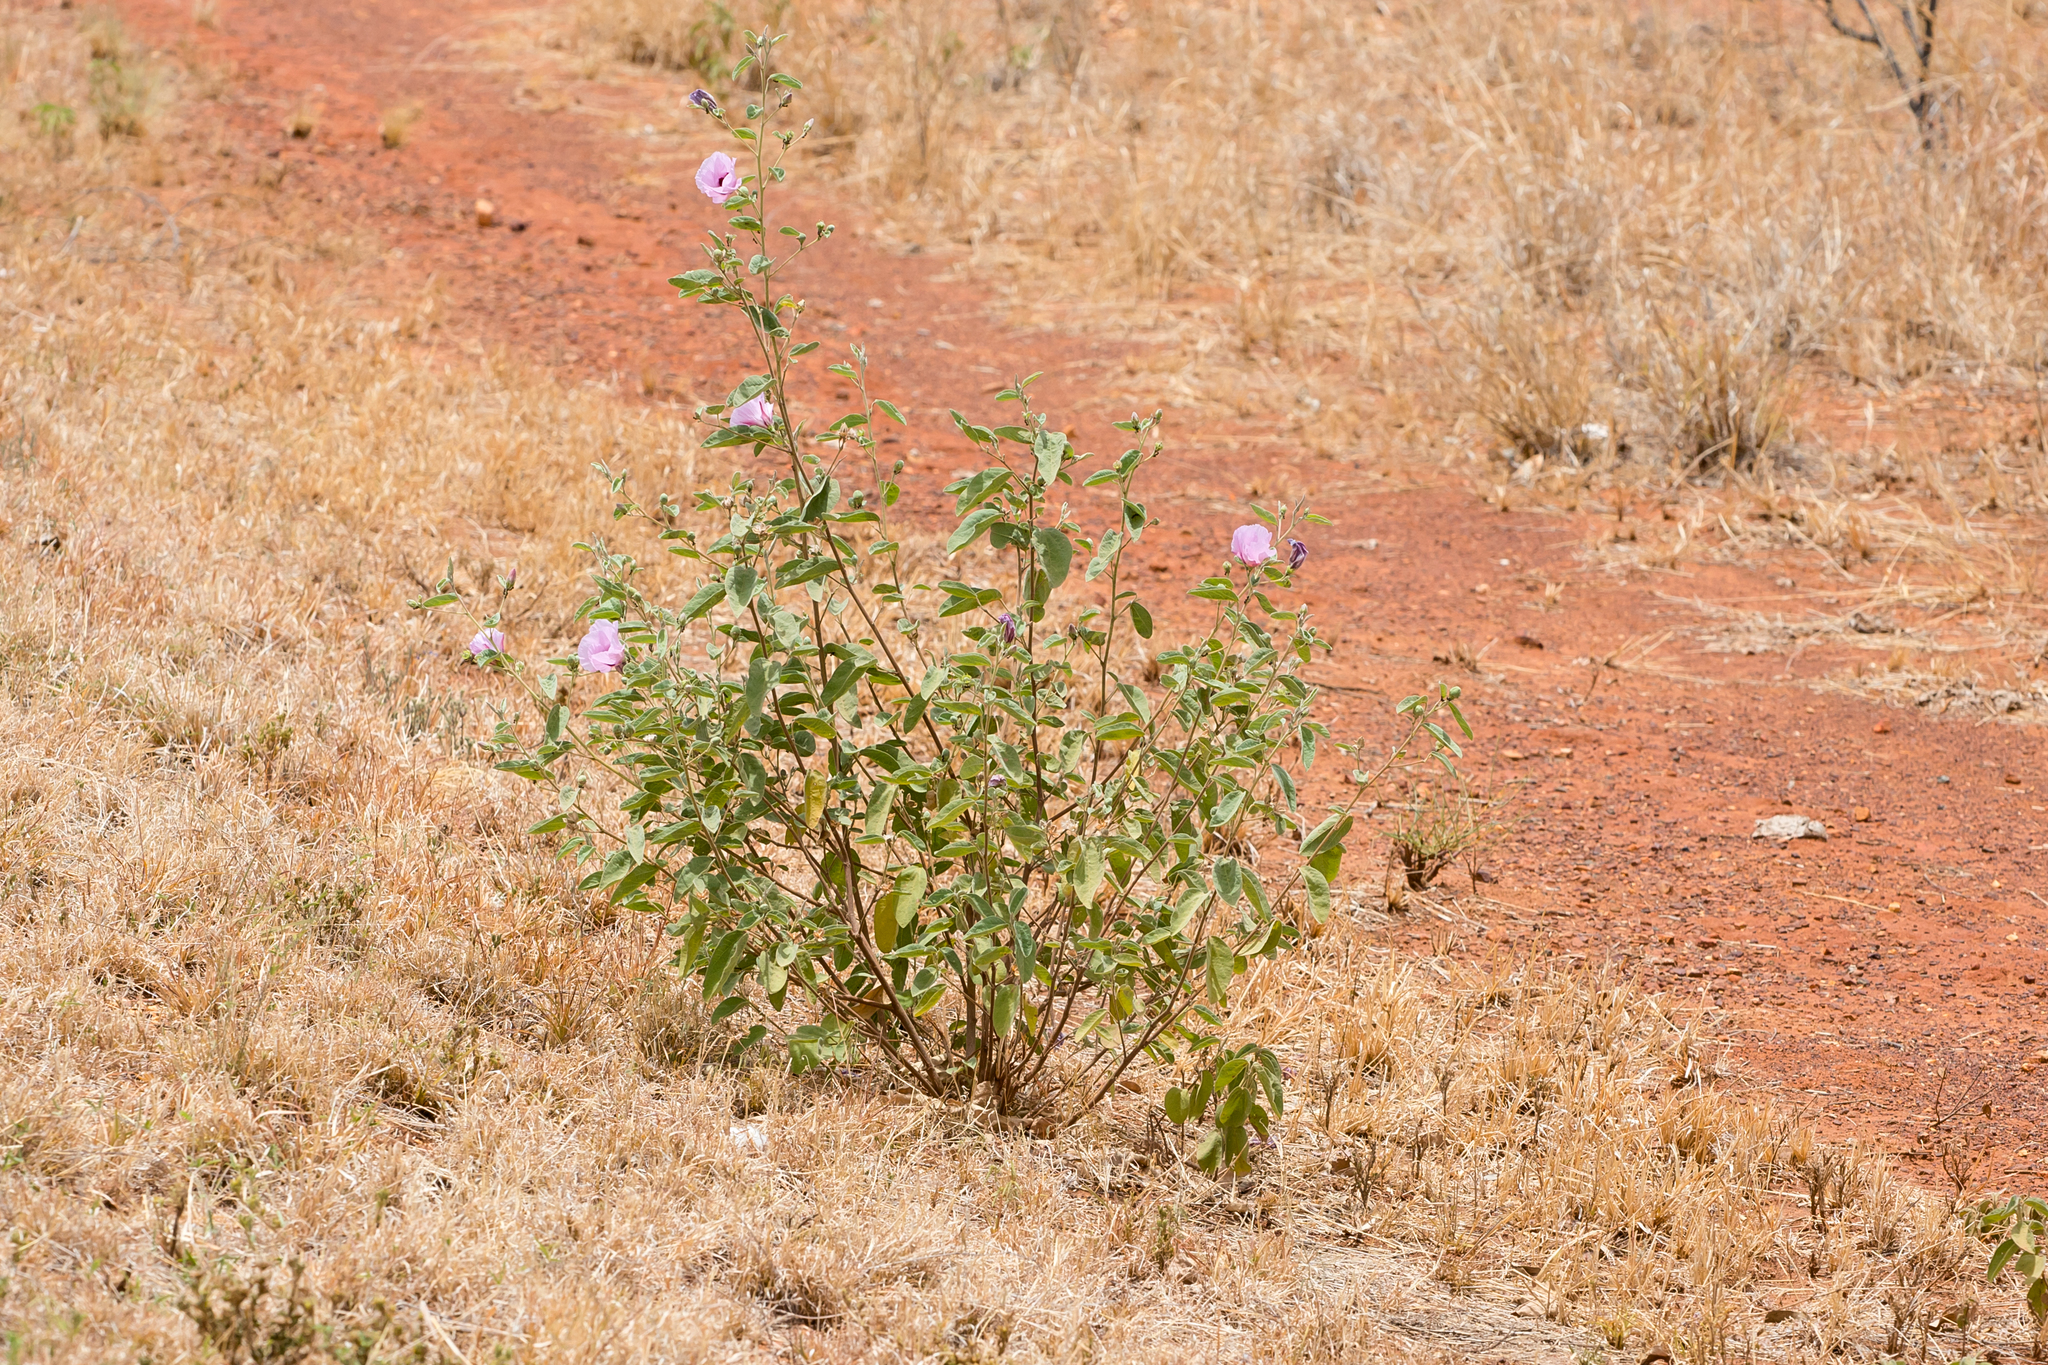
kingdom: Plantae
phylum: Tracheophyta
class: Magnoliopsida
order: Malvales
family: Malvaceae
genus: Cienfuegosia
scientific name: Cienfuegosia australis
